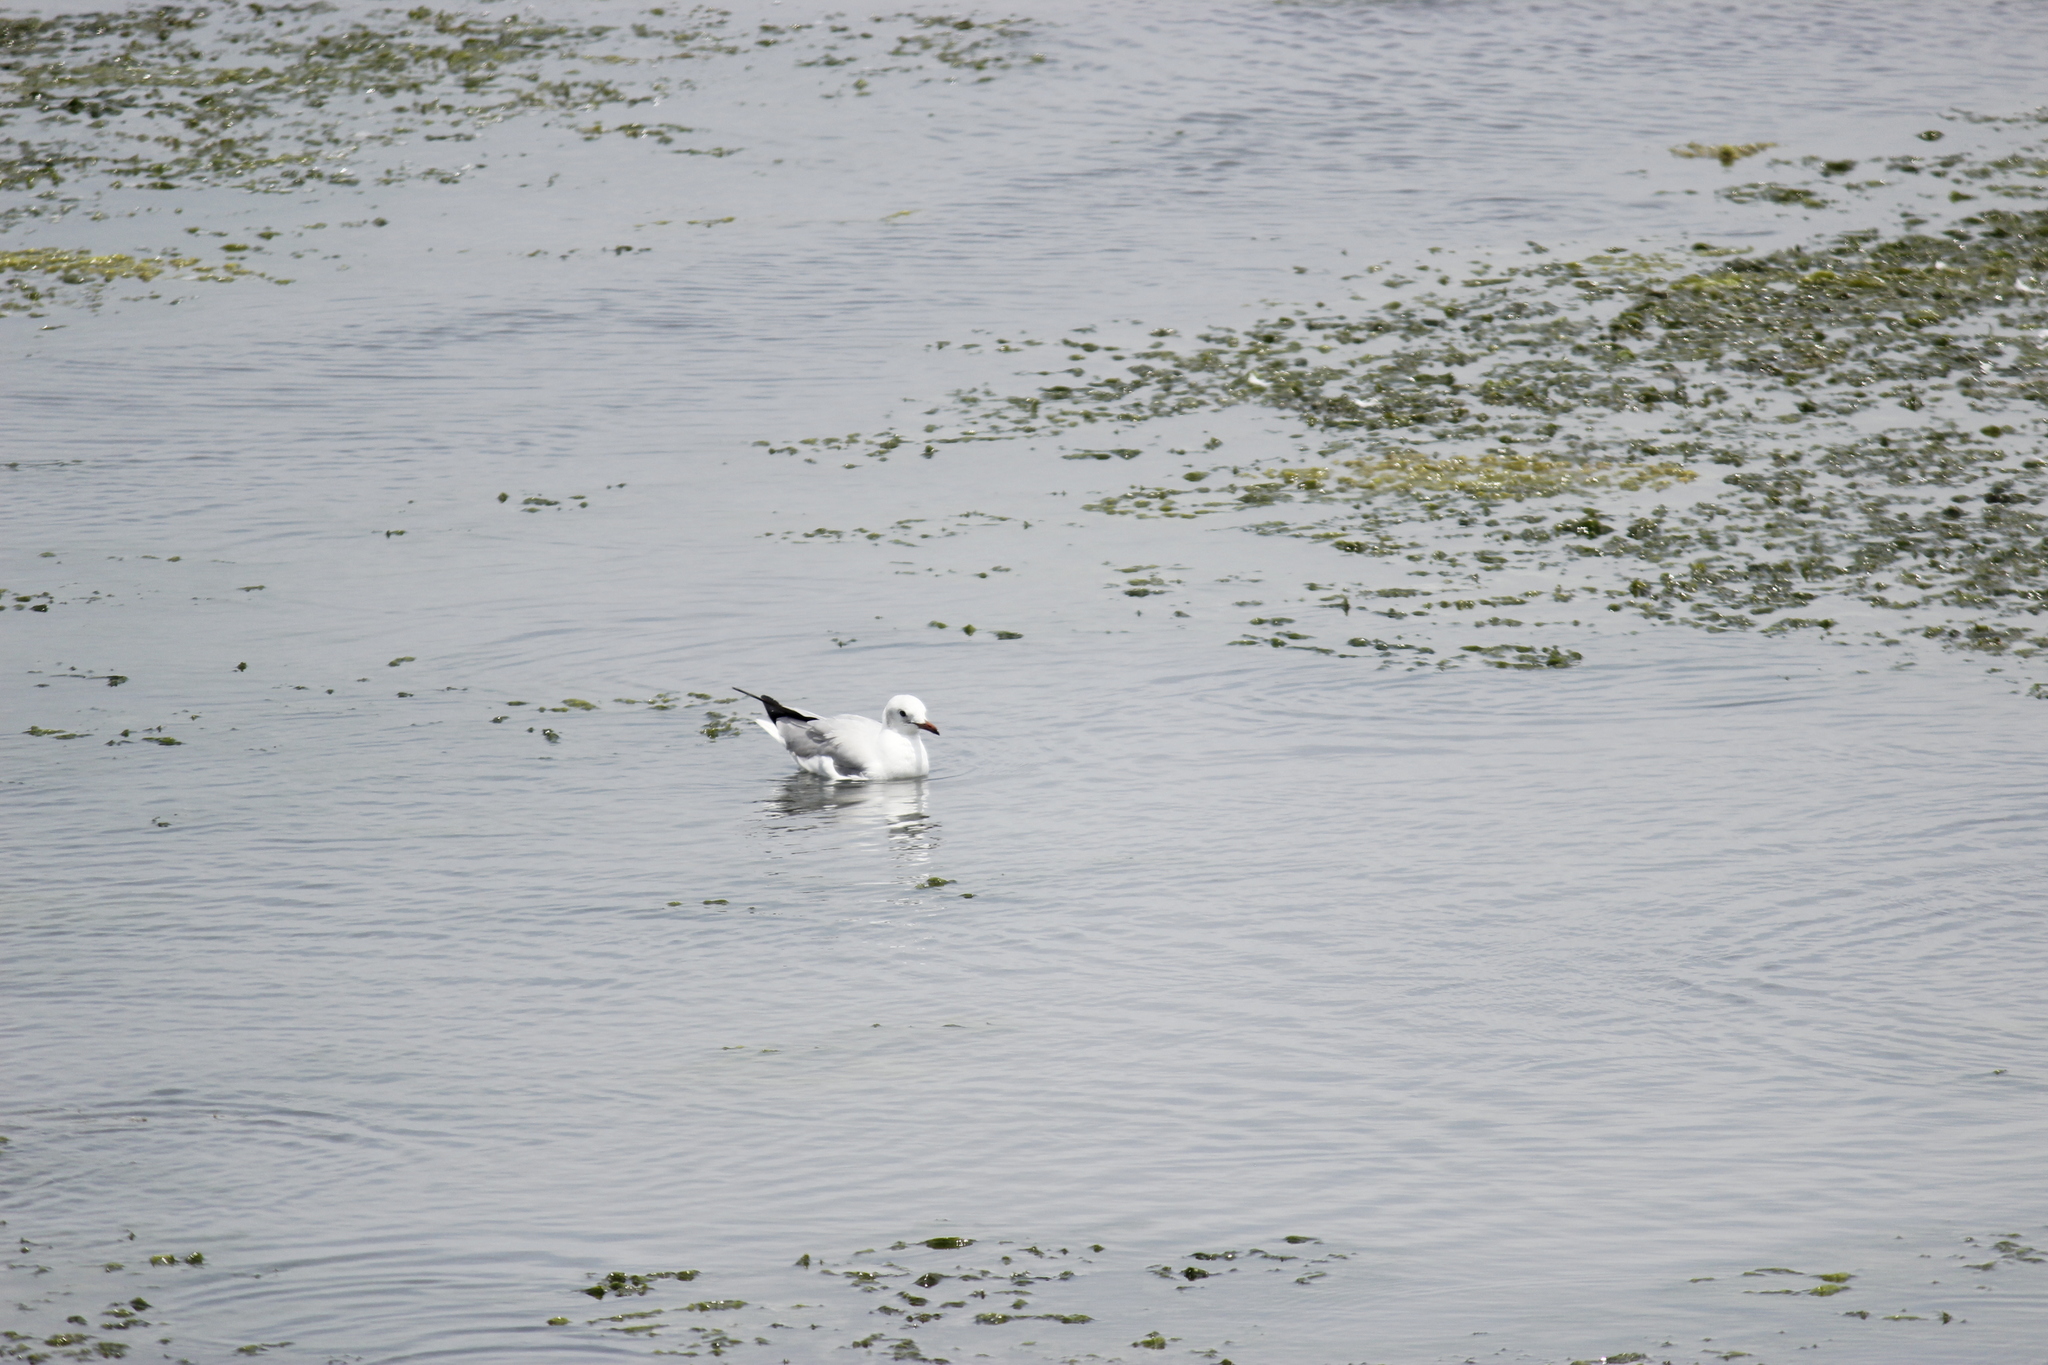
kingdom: Animalia
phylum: Chordata
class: Aves
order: Charadriiformes
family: Laridae
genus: Chroicocephalus
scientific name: Chroicocephalus cirrocephalus
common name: Grey-headed gull
